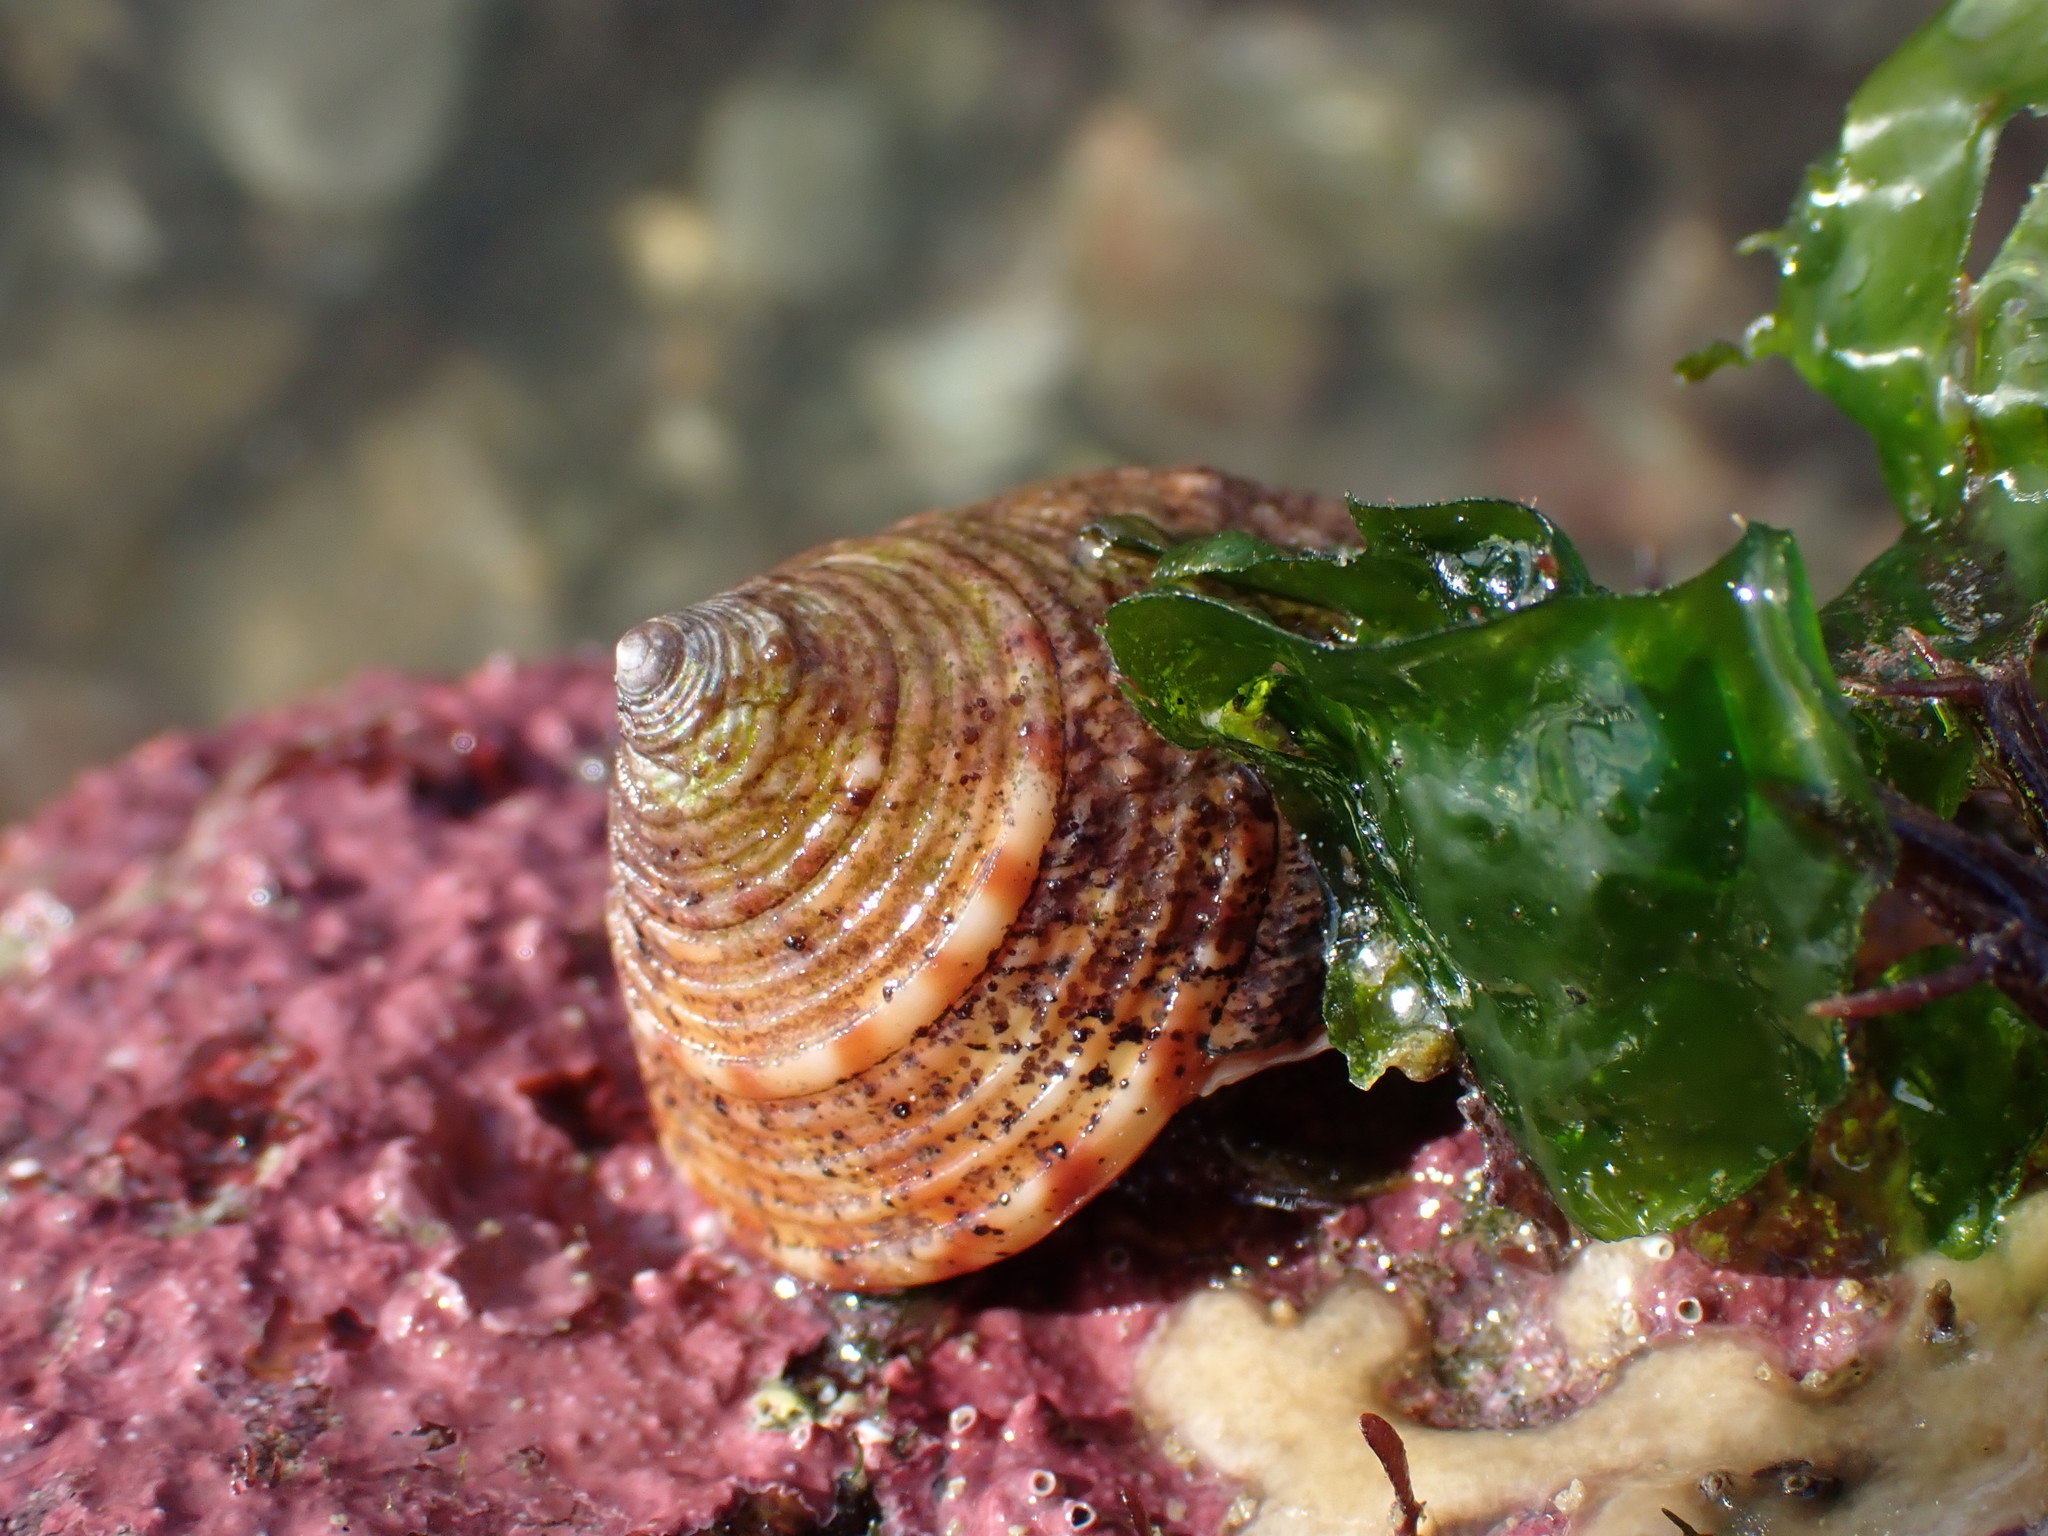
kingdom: Animalia
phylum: Mollusca
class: Gastropoda
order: Trochida
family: Calliostomatidae
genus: Calliostoma
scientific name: Calliostoma zizyphinum
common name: Painted top shell
